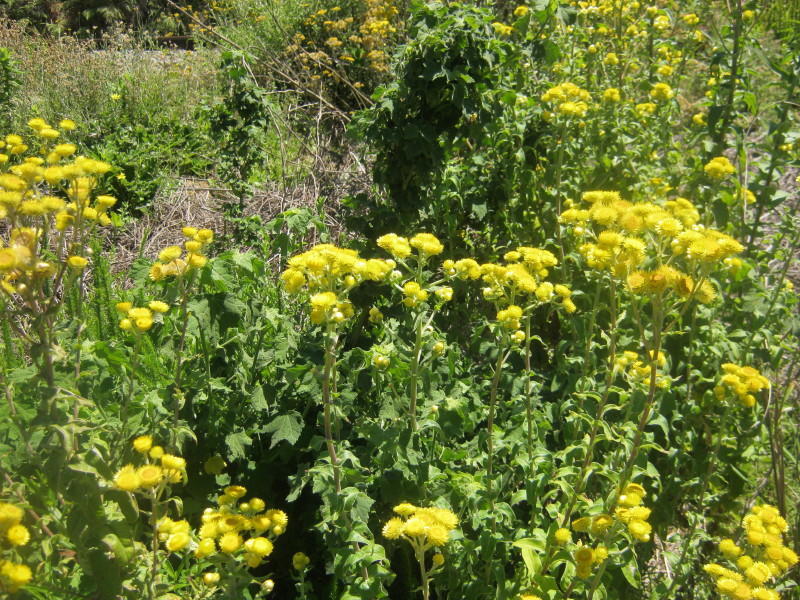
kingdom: Plantae
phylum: Tracheophyta
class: Magnoliopsida
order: Asterales
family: Asteraceae
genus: Helichrysum
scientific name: Helichrysum foetidum
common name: Stinking everlasting
